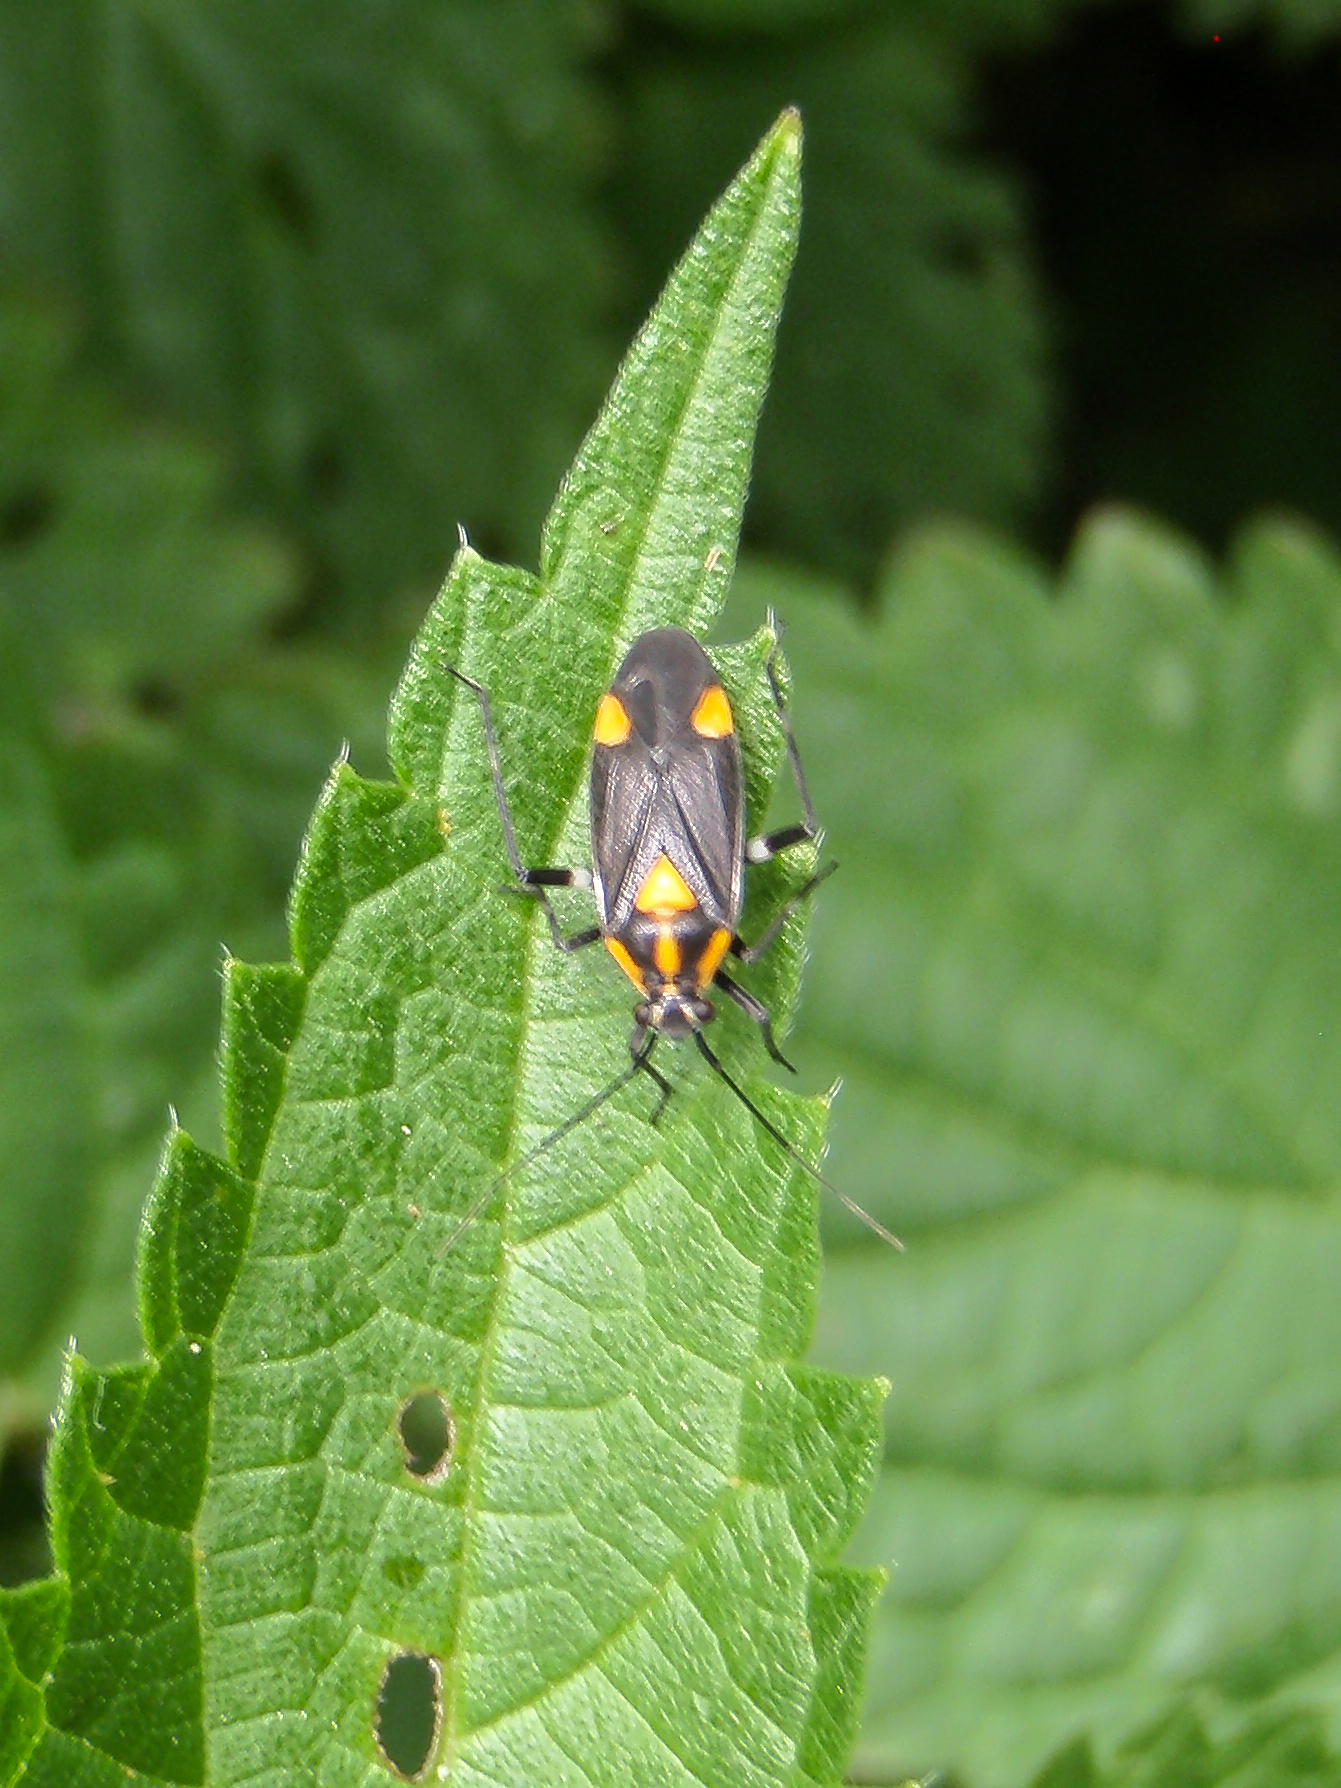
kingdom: Animalia
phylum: Arthropoda
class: Insecta
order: Hemiptera
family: Miridae
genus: Capsodes
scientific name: Capsodes mat
